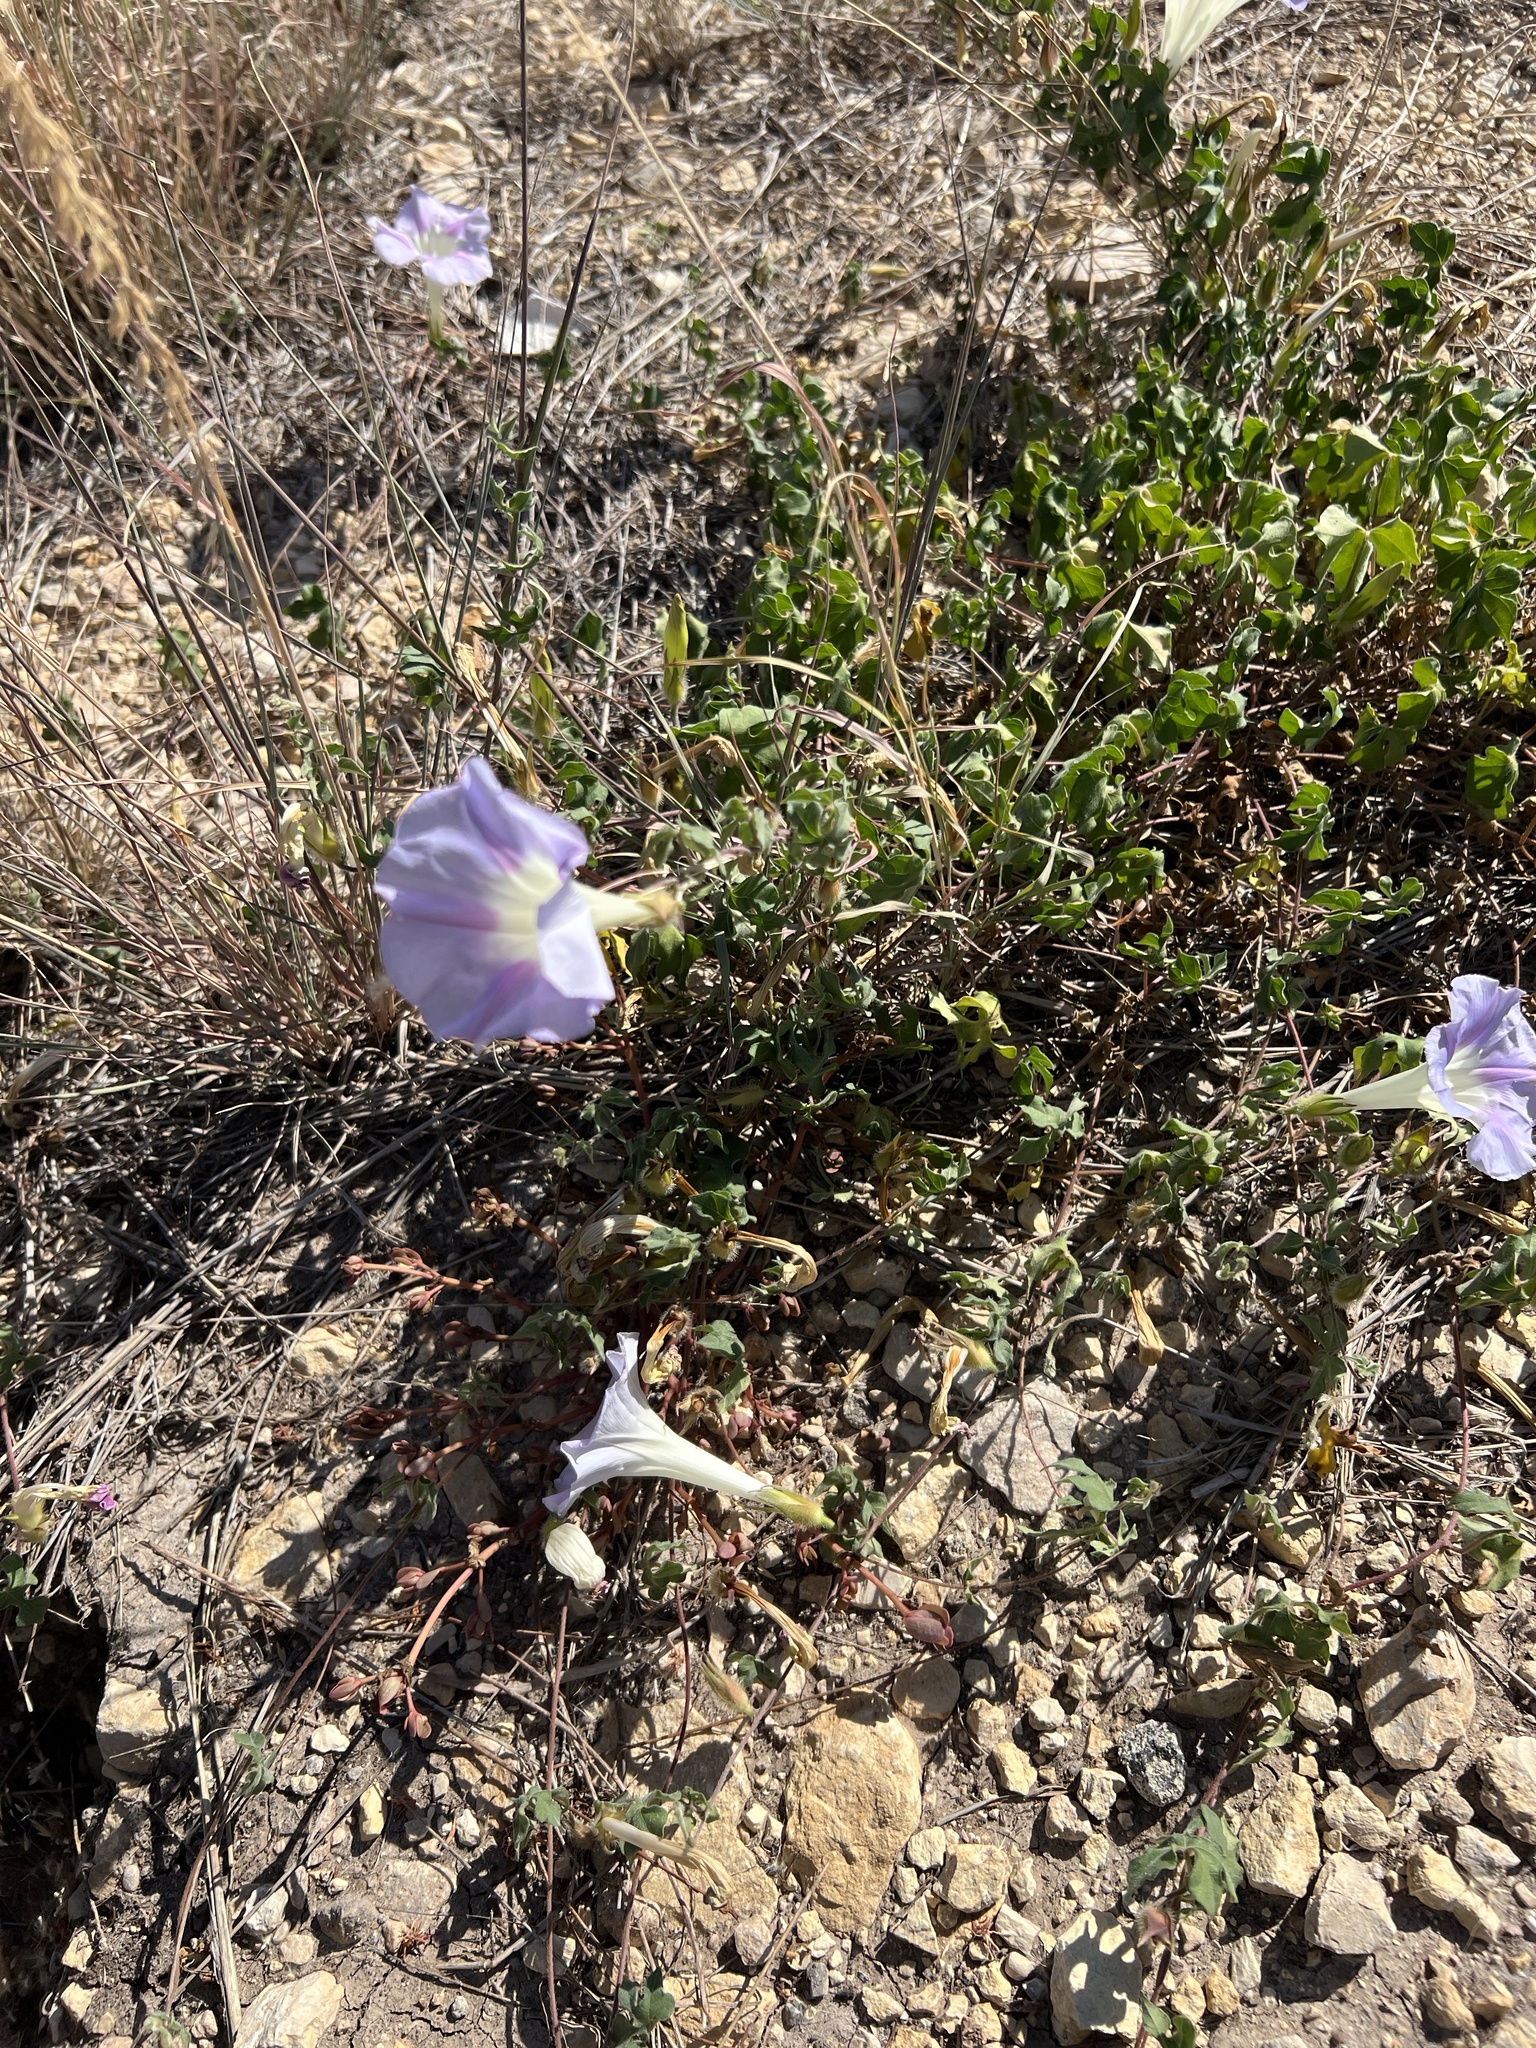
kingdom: Plantae
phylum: Tracheophyta
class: Magnoliopsida
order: Solanales
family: Convolvulaceae
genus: Ipomoea
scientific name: Ipomoea lindheimeri
